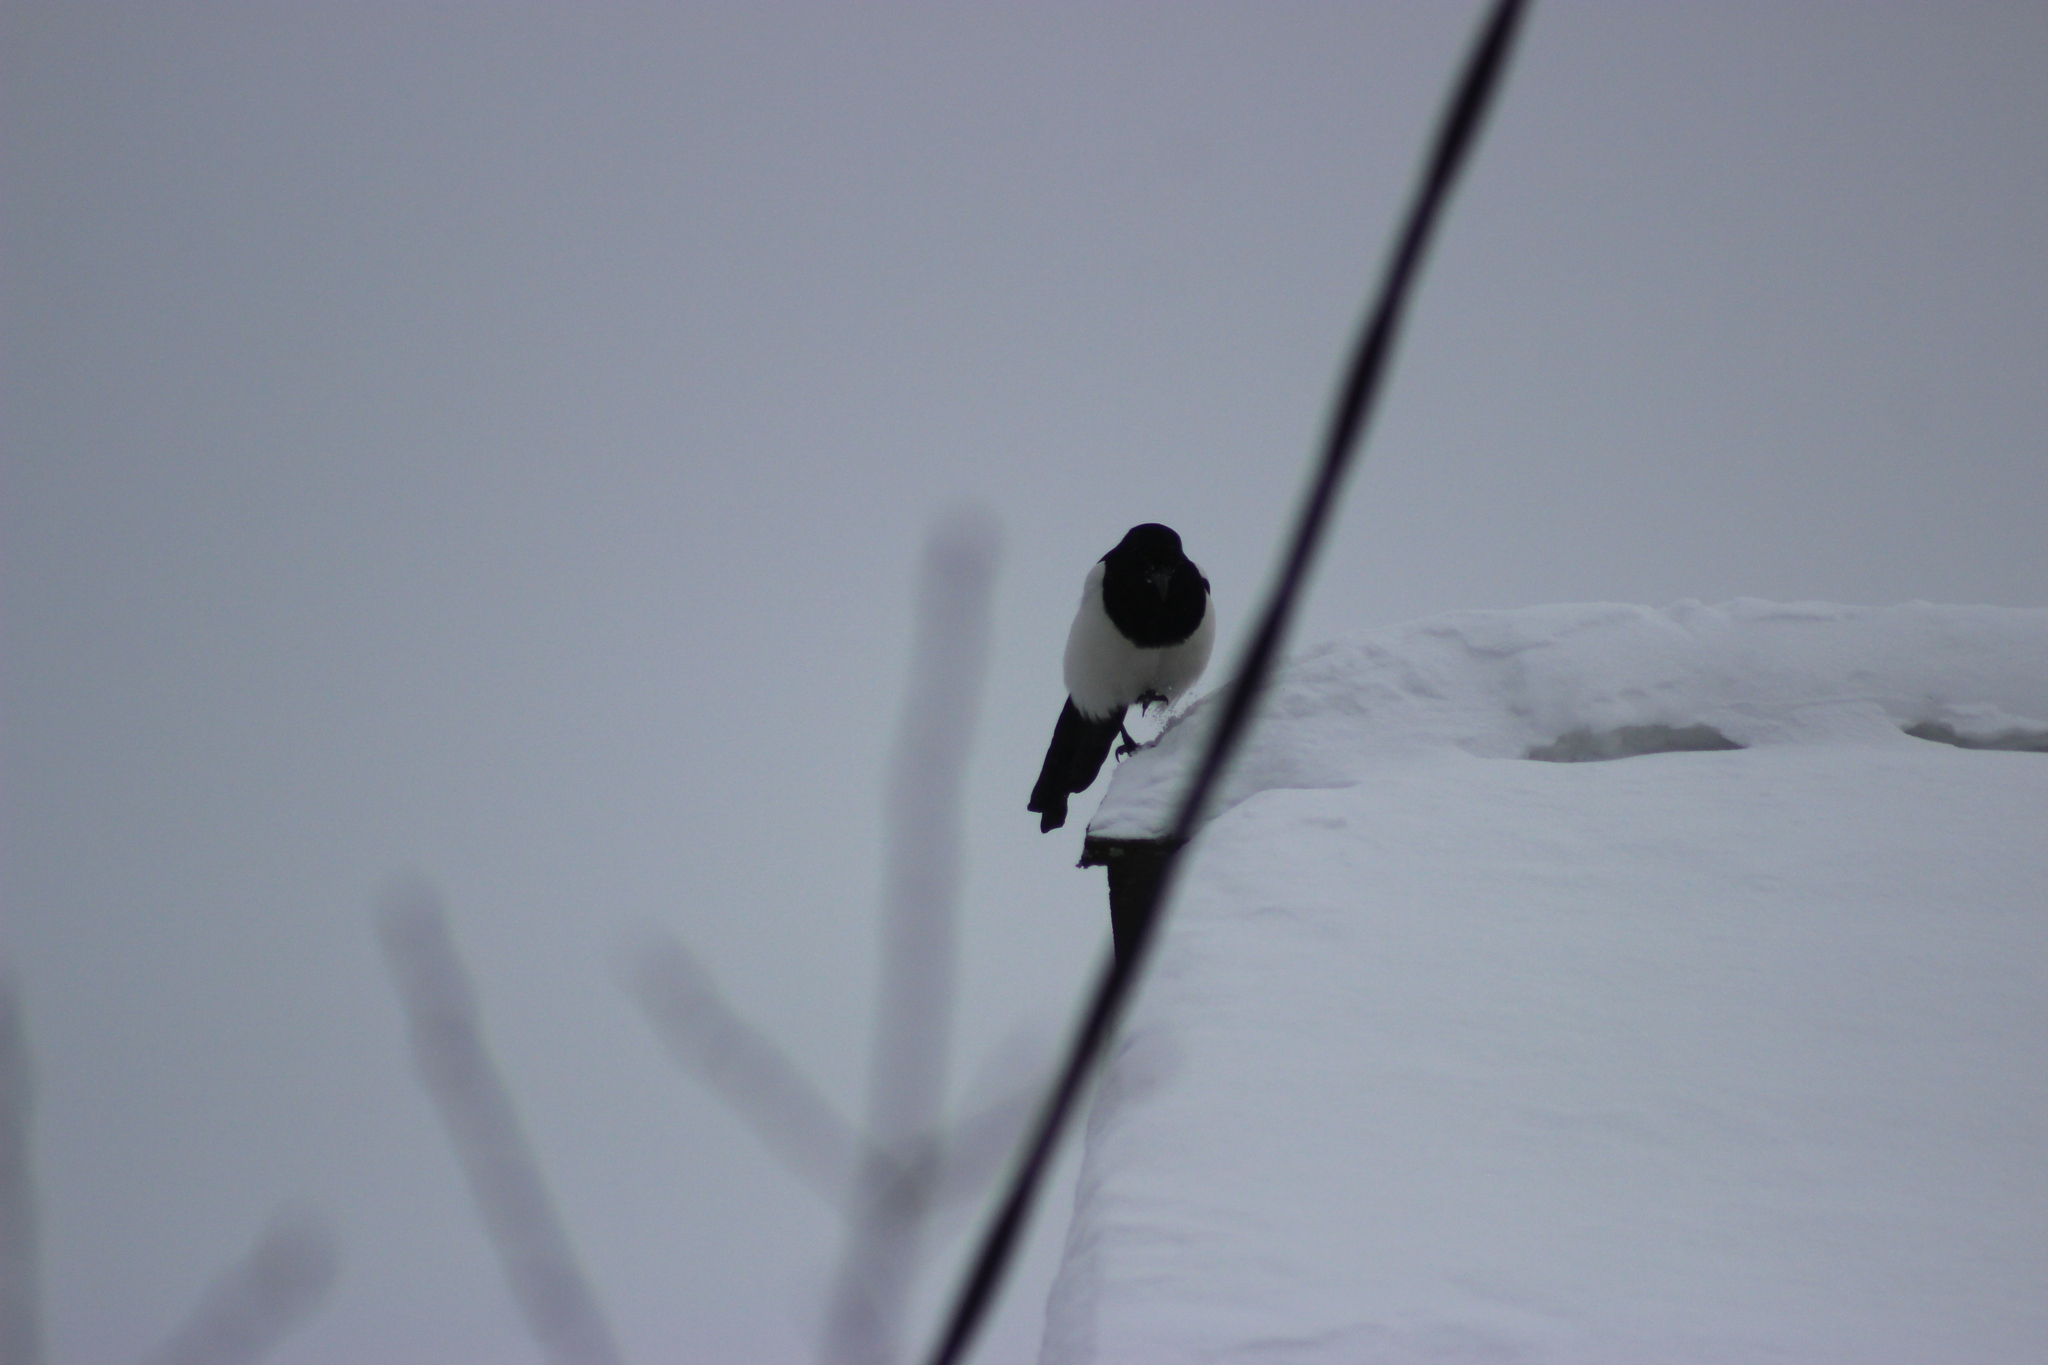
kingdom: Animalia
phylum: Chordata
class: Aves
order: Passeriformes
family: Corvidae
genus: Pica
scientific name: Pica pica
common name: Eurasian magpie
